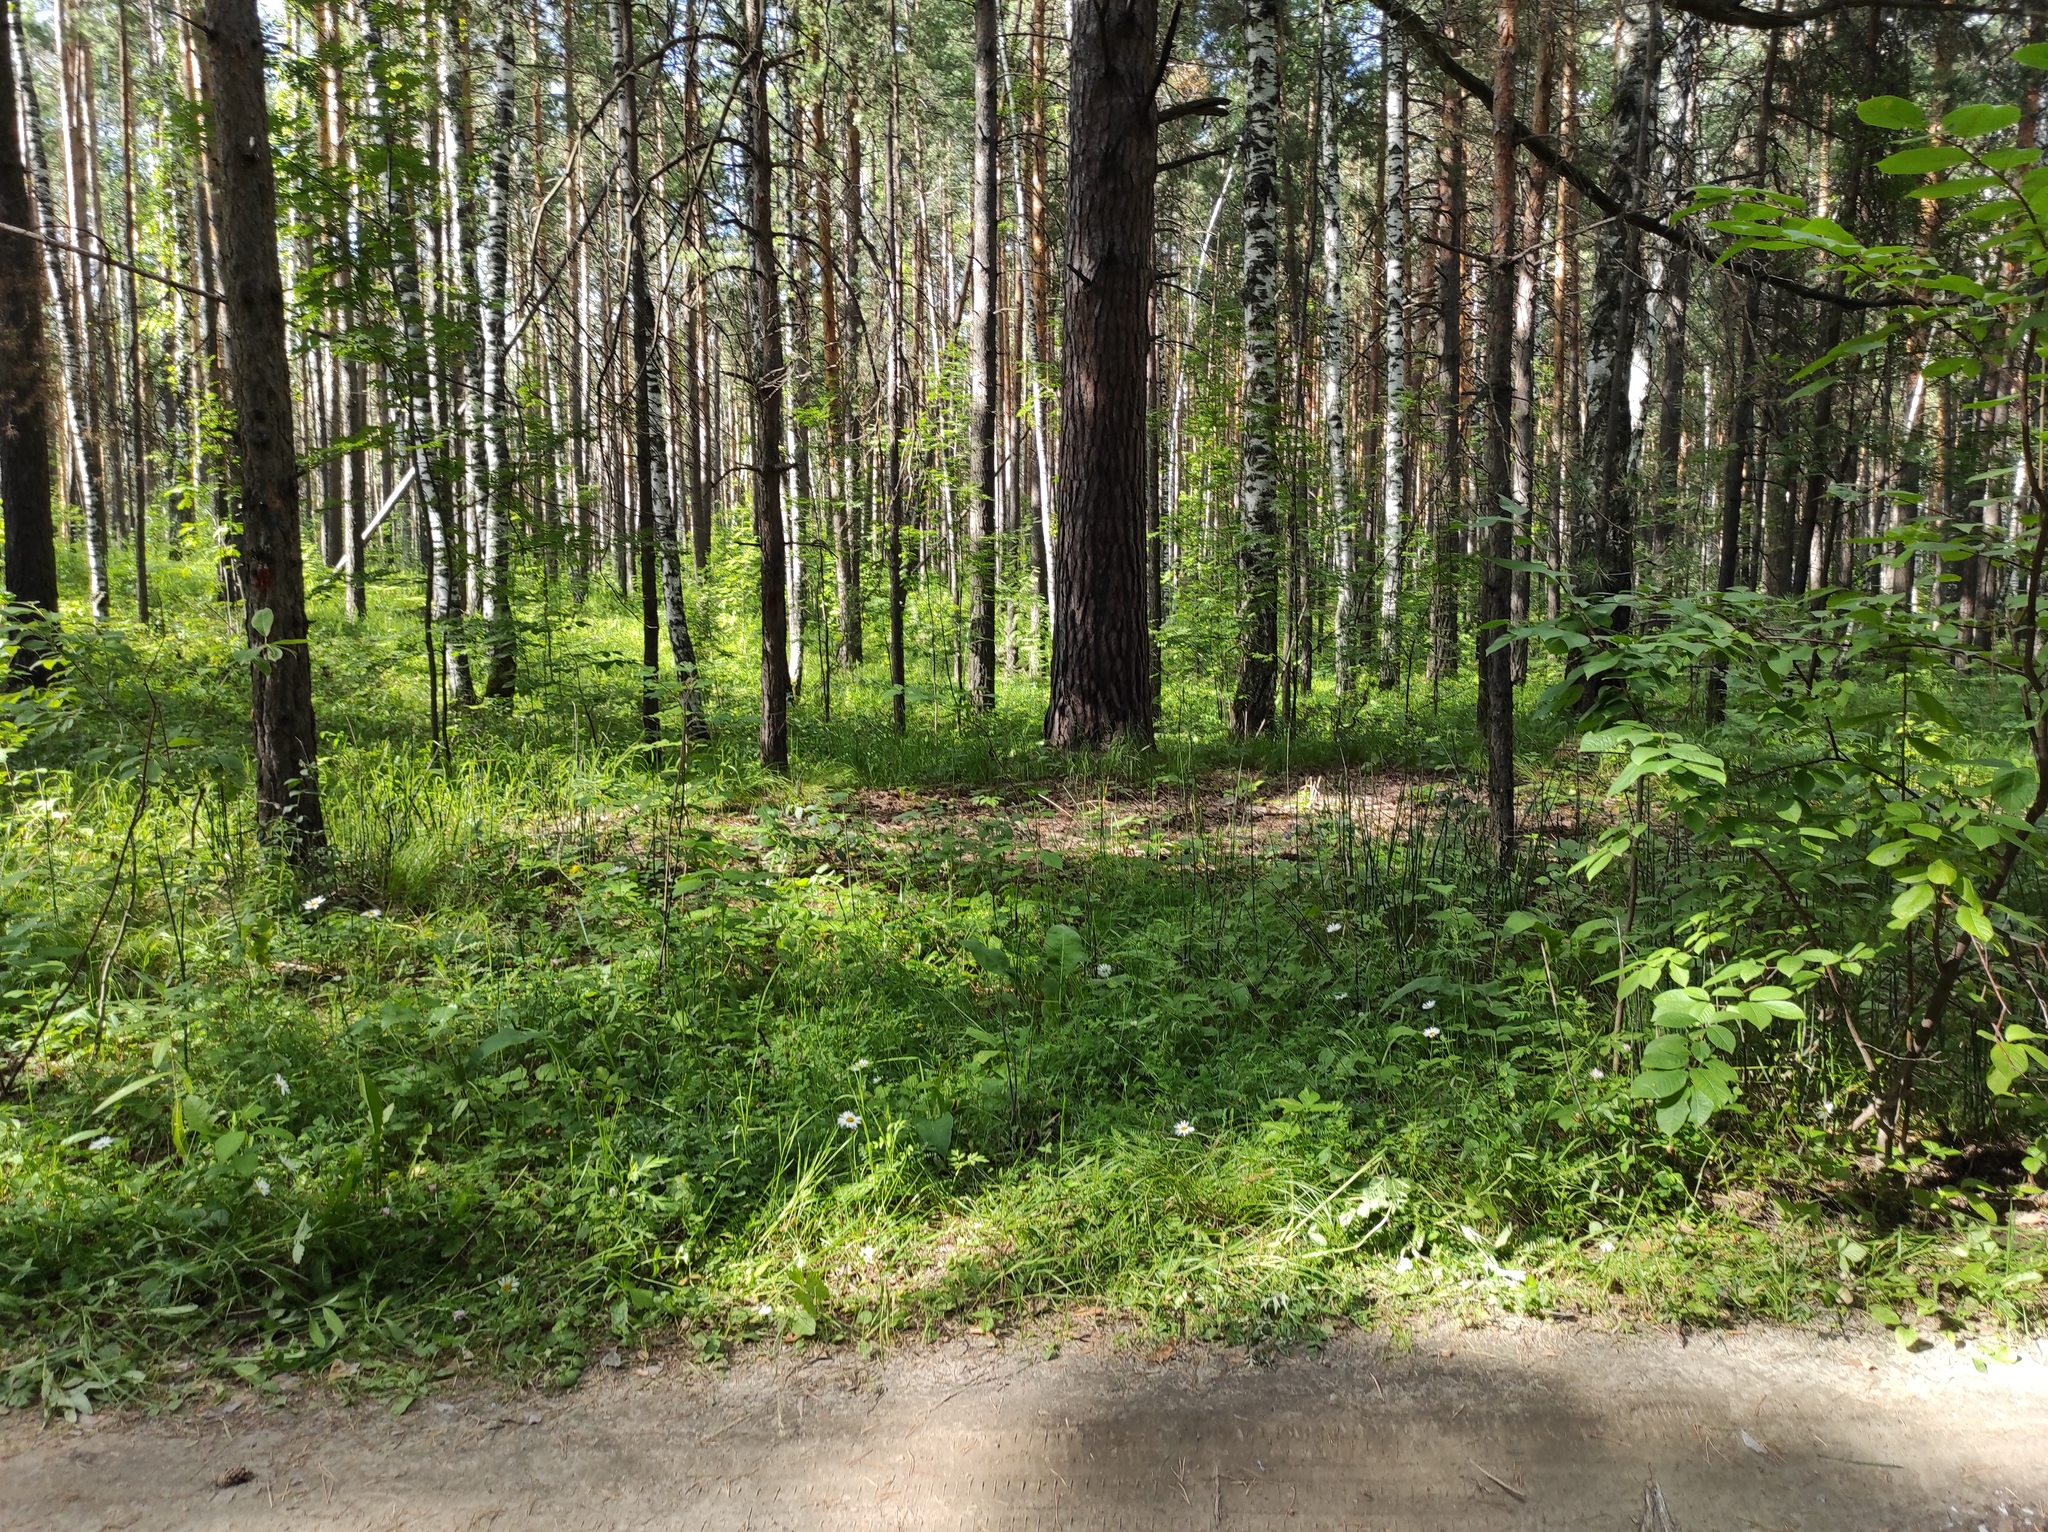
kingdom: Plantae
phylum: Tracheophyta
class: Pinopsida
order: Pinales
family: Pinaceae
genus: Pinus
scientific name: Pinus sylvestris
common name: Scots pine
